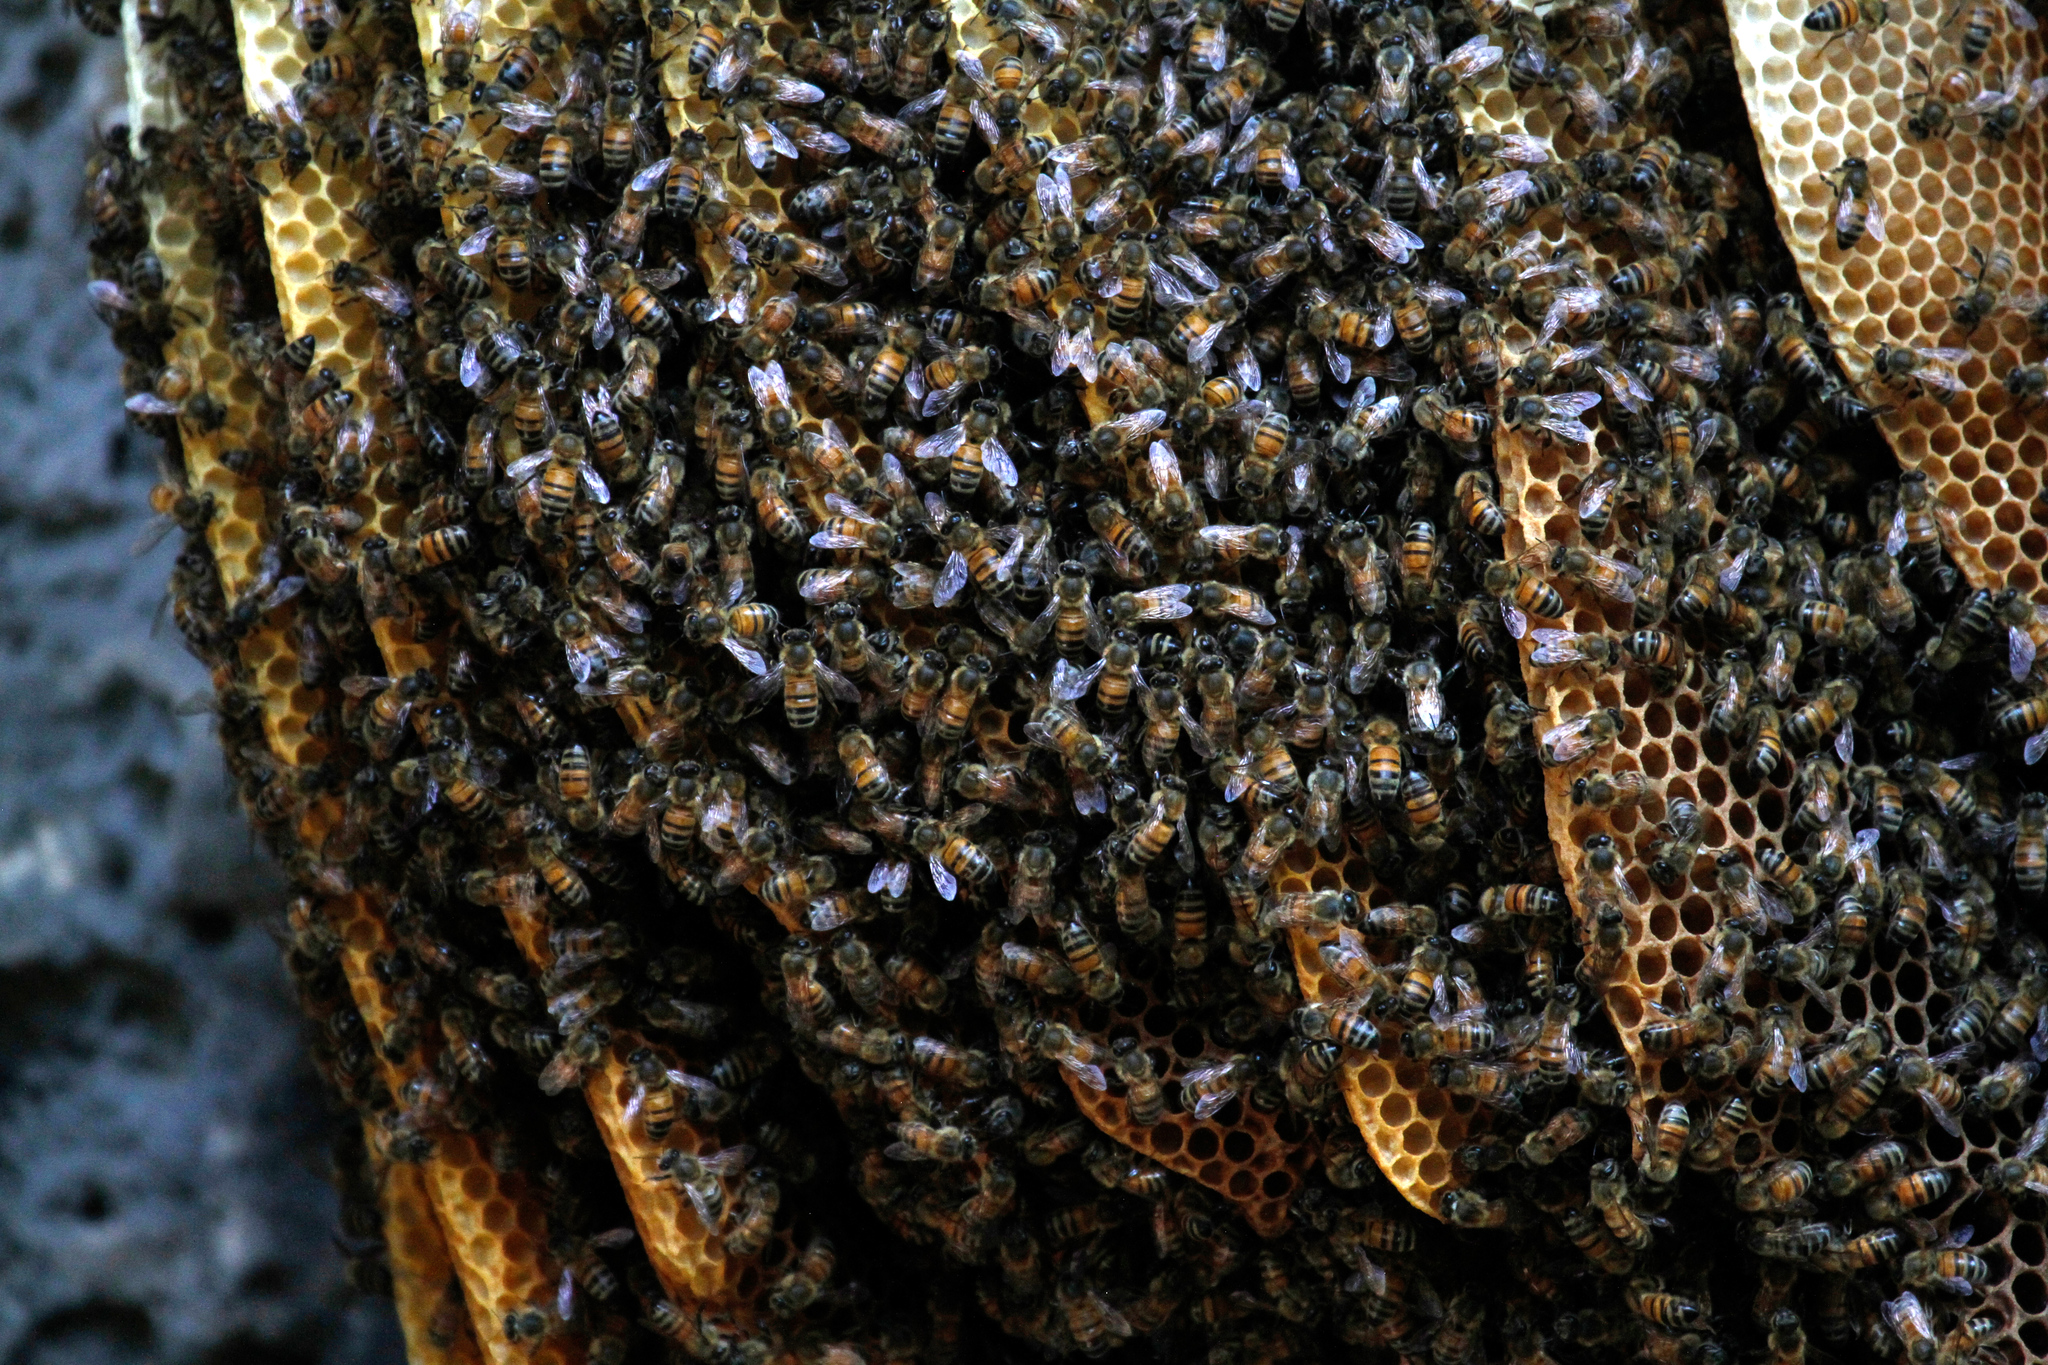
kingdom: Animalia
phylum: Arthropoda
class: Insecta
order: Hymenoptera
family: Apidae
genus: Apis
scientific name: Apis mellifera
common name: Honey bee
